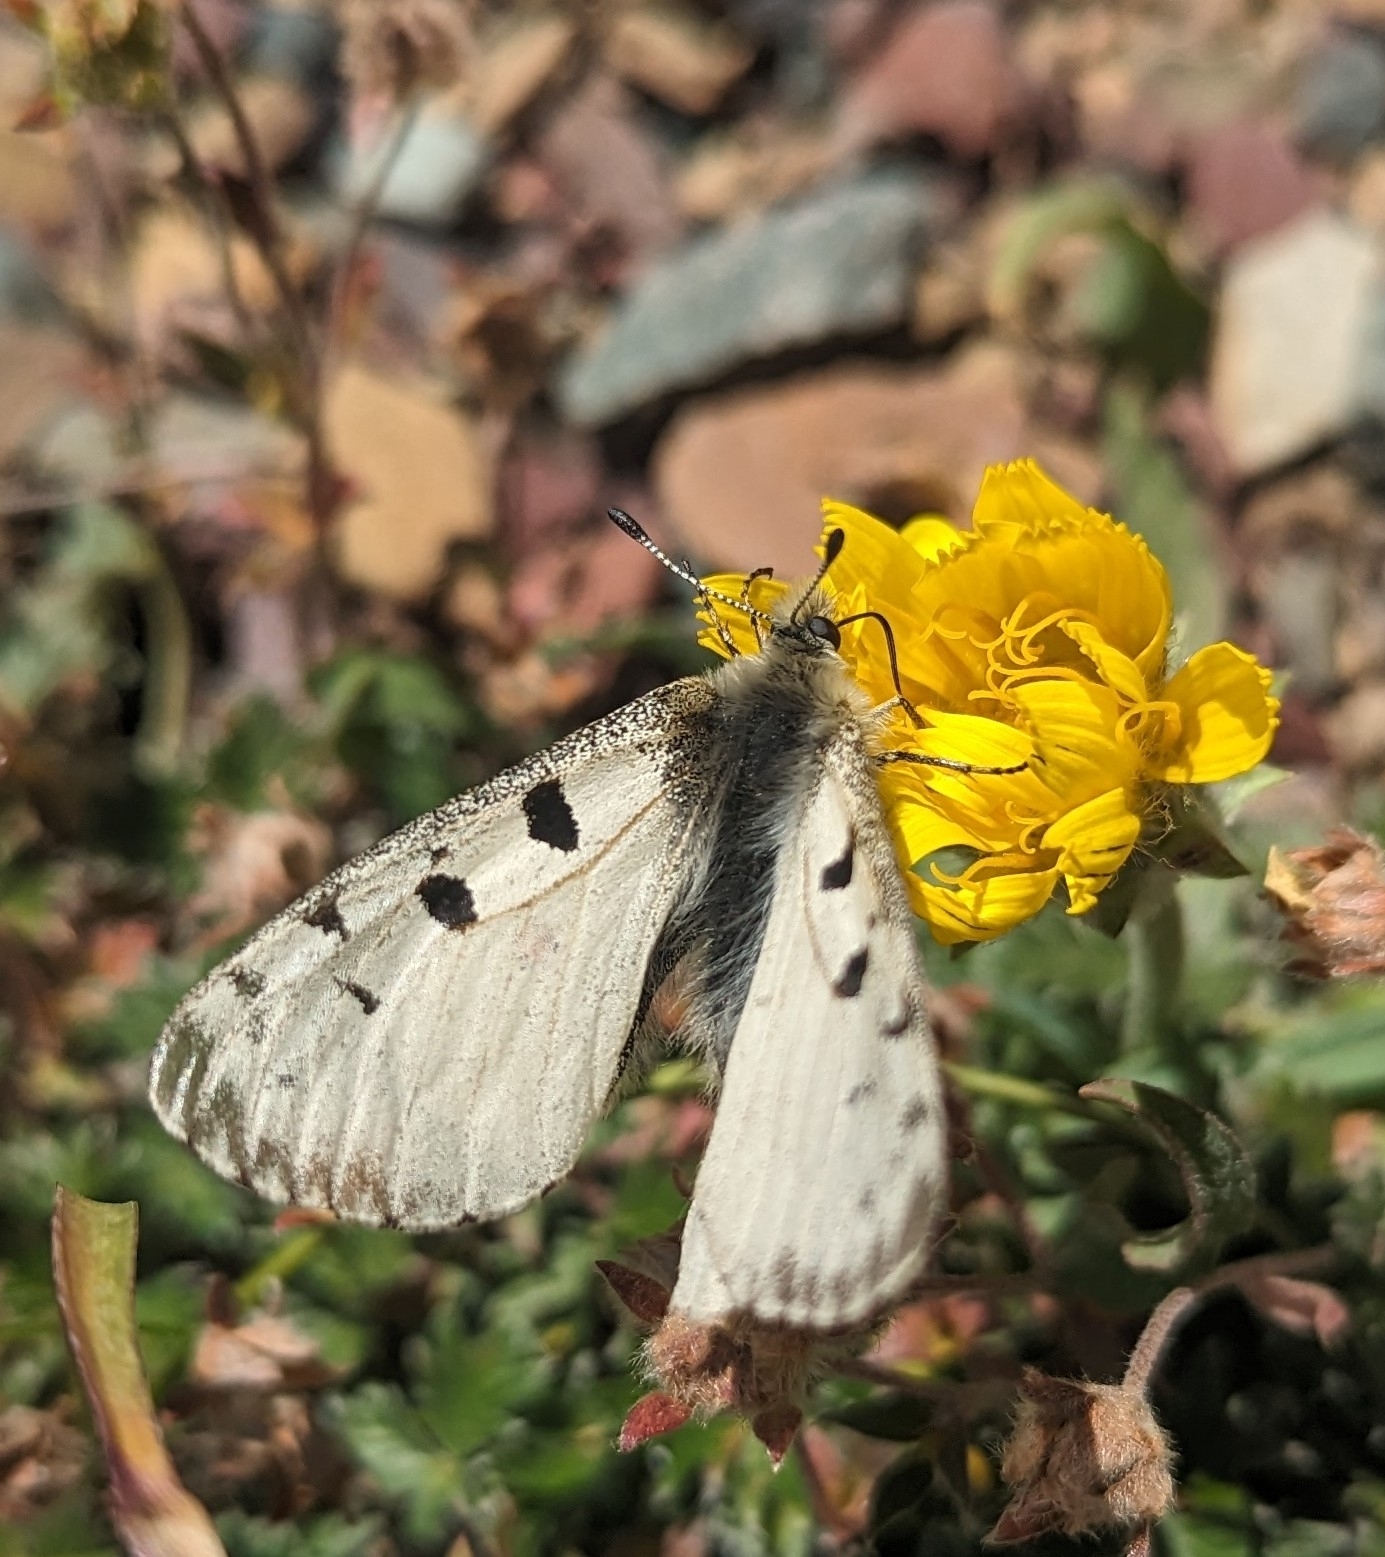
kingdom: Animalia
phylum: Arthropoda
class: Insecta
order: Lepidoptera
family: Papilionidae
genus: Parnassius
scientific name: Parnassius smintheus
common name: Mountain parnassian
